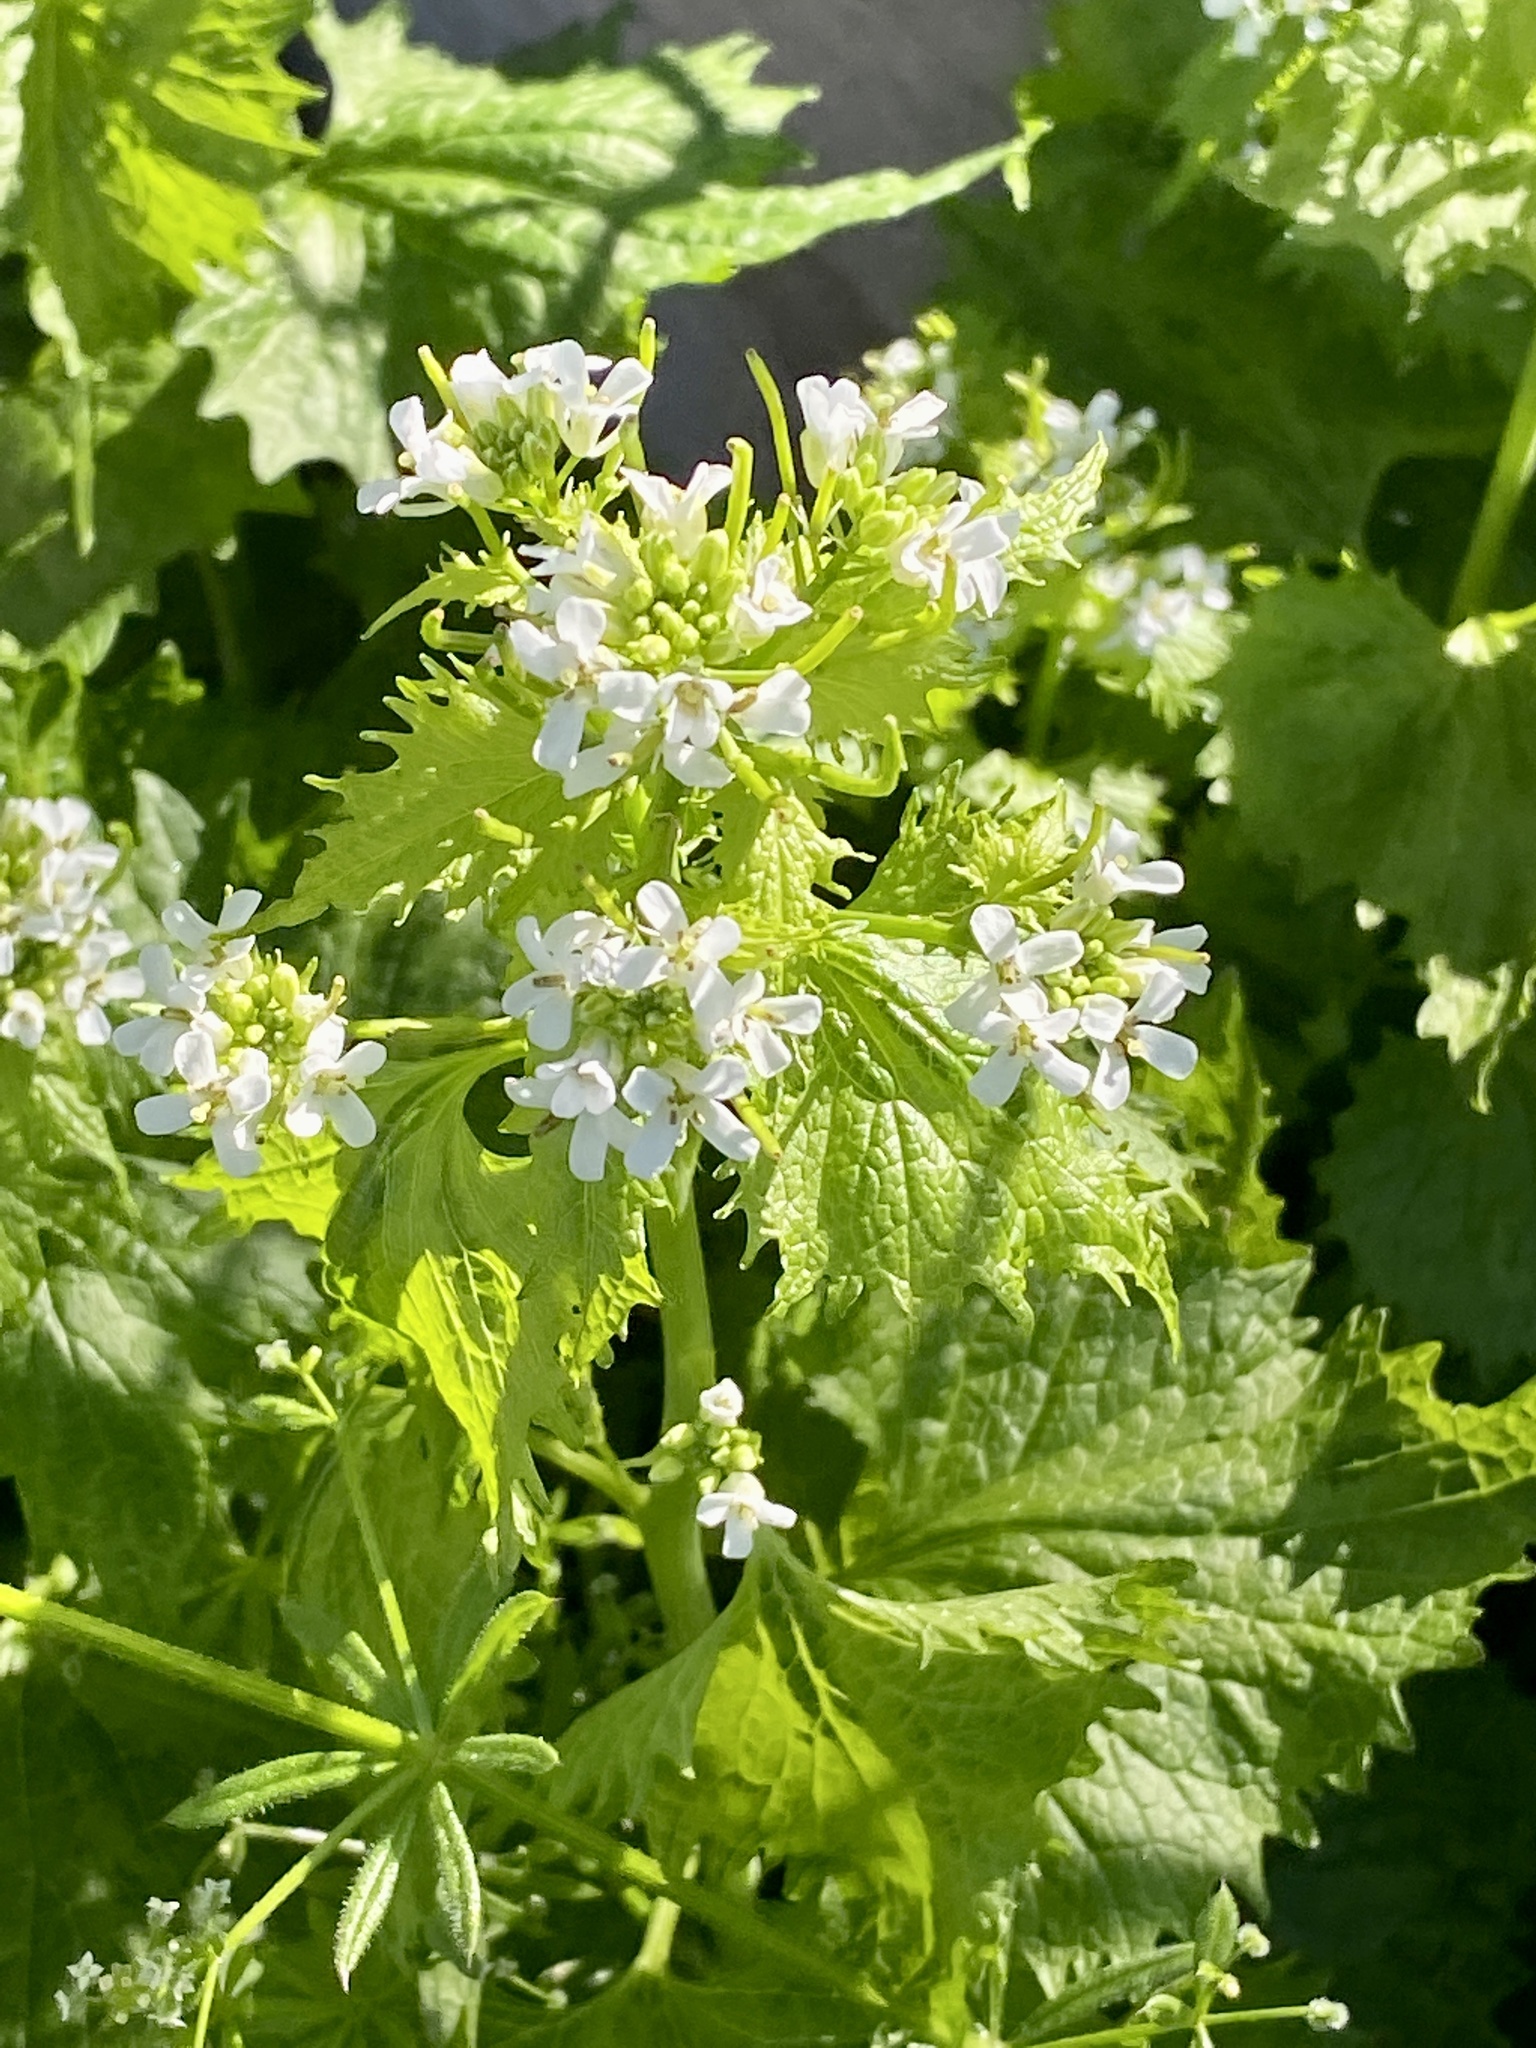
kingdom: Plantae
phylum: Tracheophyta
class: Magnoliopsida
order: Brassicales
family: Brassicaceae
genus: Alliaria
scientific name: Alliaria petiolata
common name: Garlic mustard
